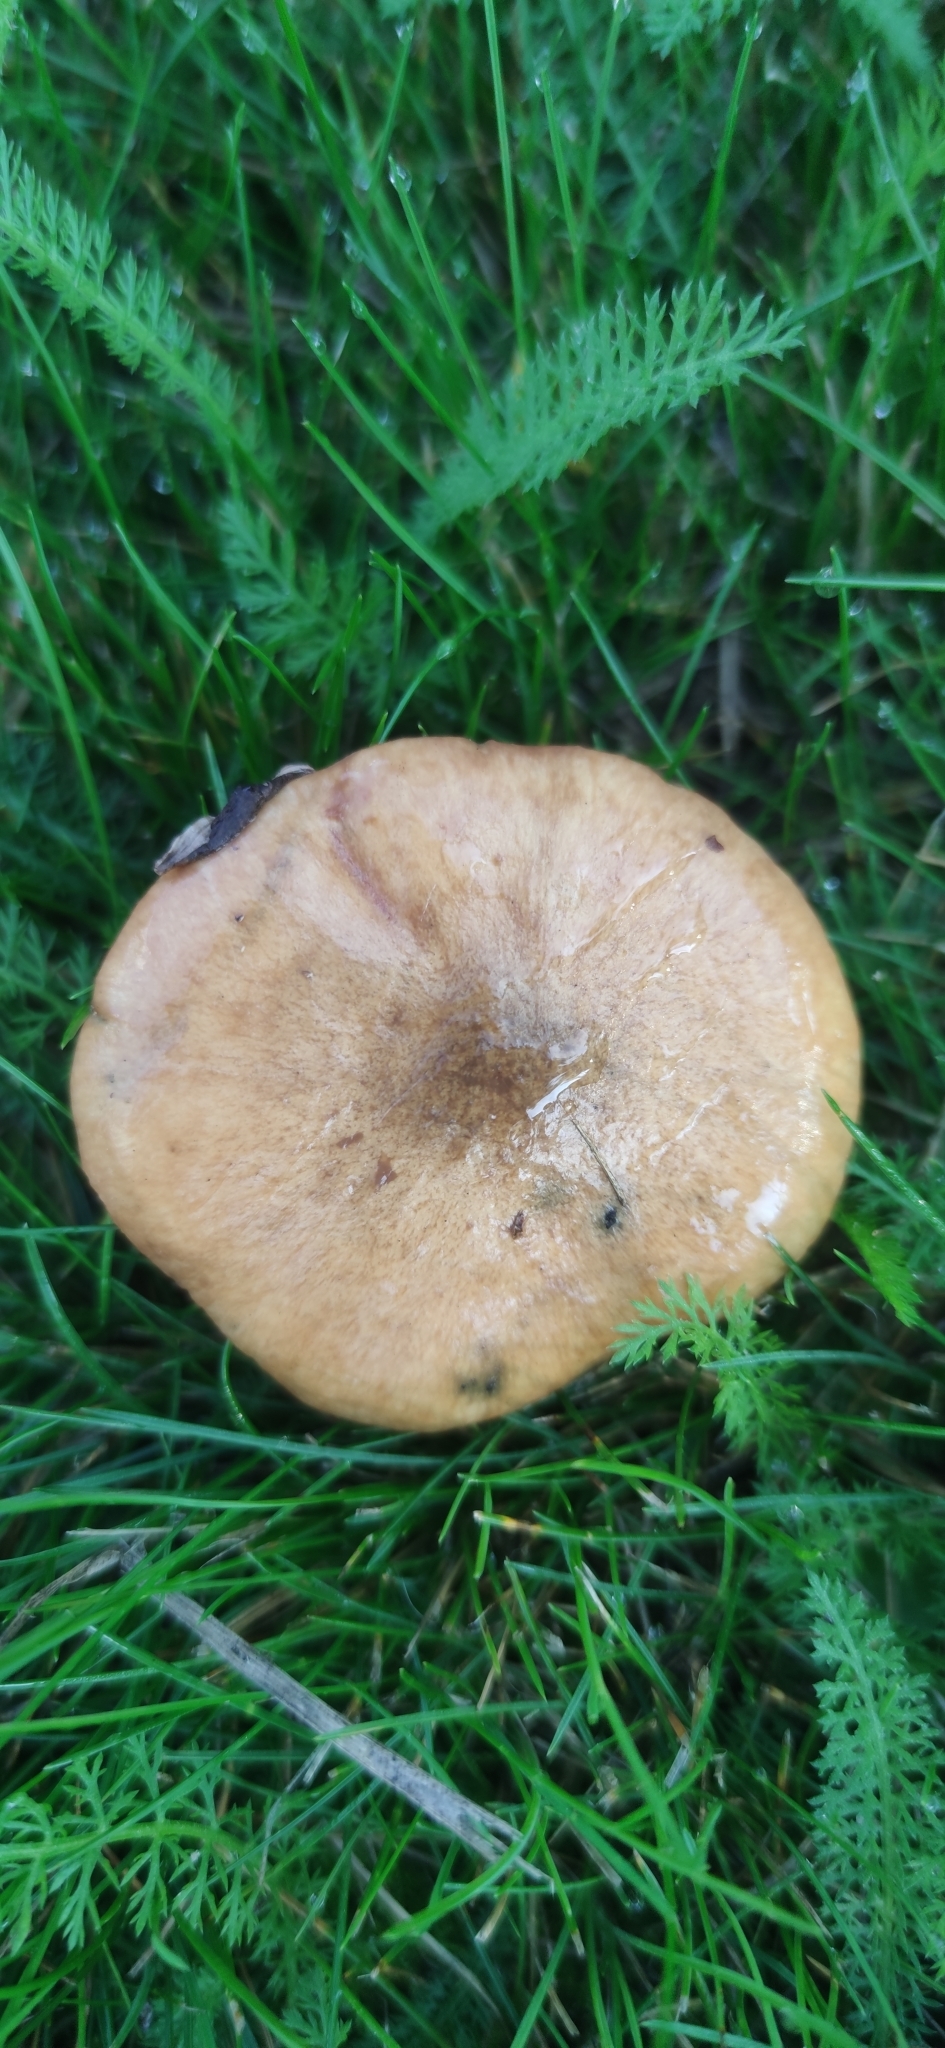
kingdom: Fungi
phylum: Basidiomycota
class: Agaricomycetes
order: Boletales
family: Suillaceae
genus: Suillus
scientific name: Suillus luteus
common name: Slippery jack
